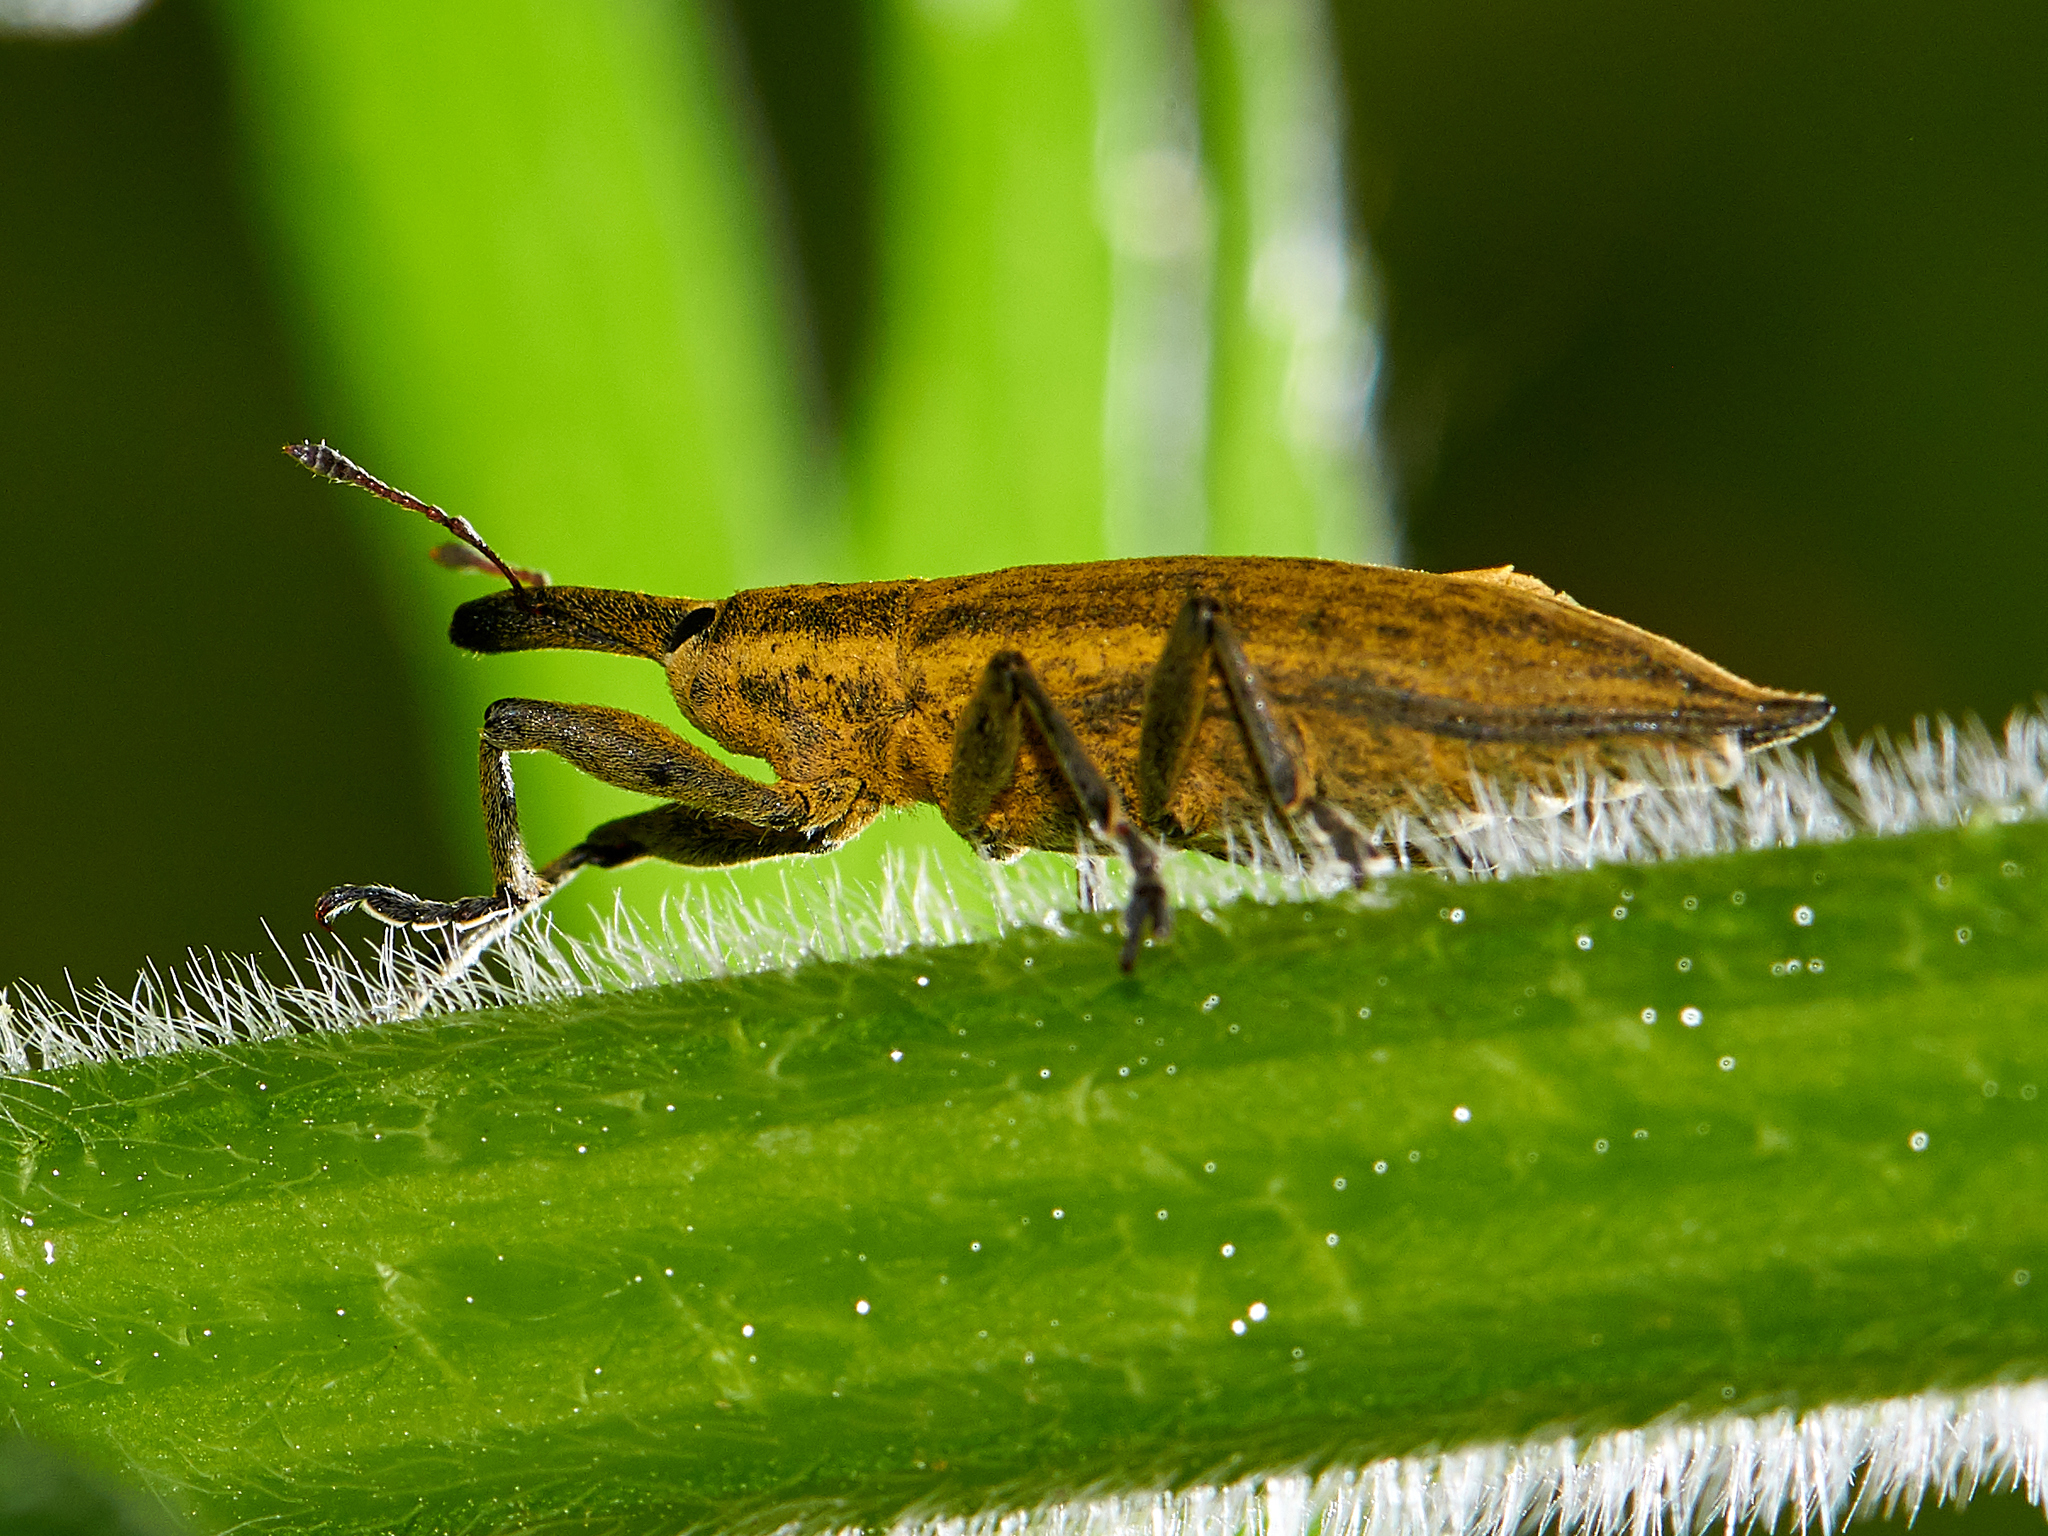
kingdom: Animalia
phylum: Arthropoda
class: Insecta
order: Coleoptera
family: Curculionidae
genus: Lixus
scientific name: Lixus iridis
